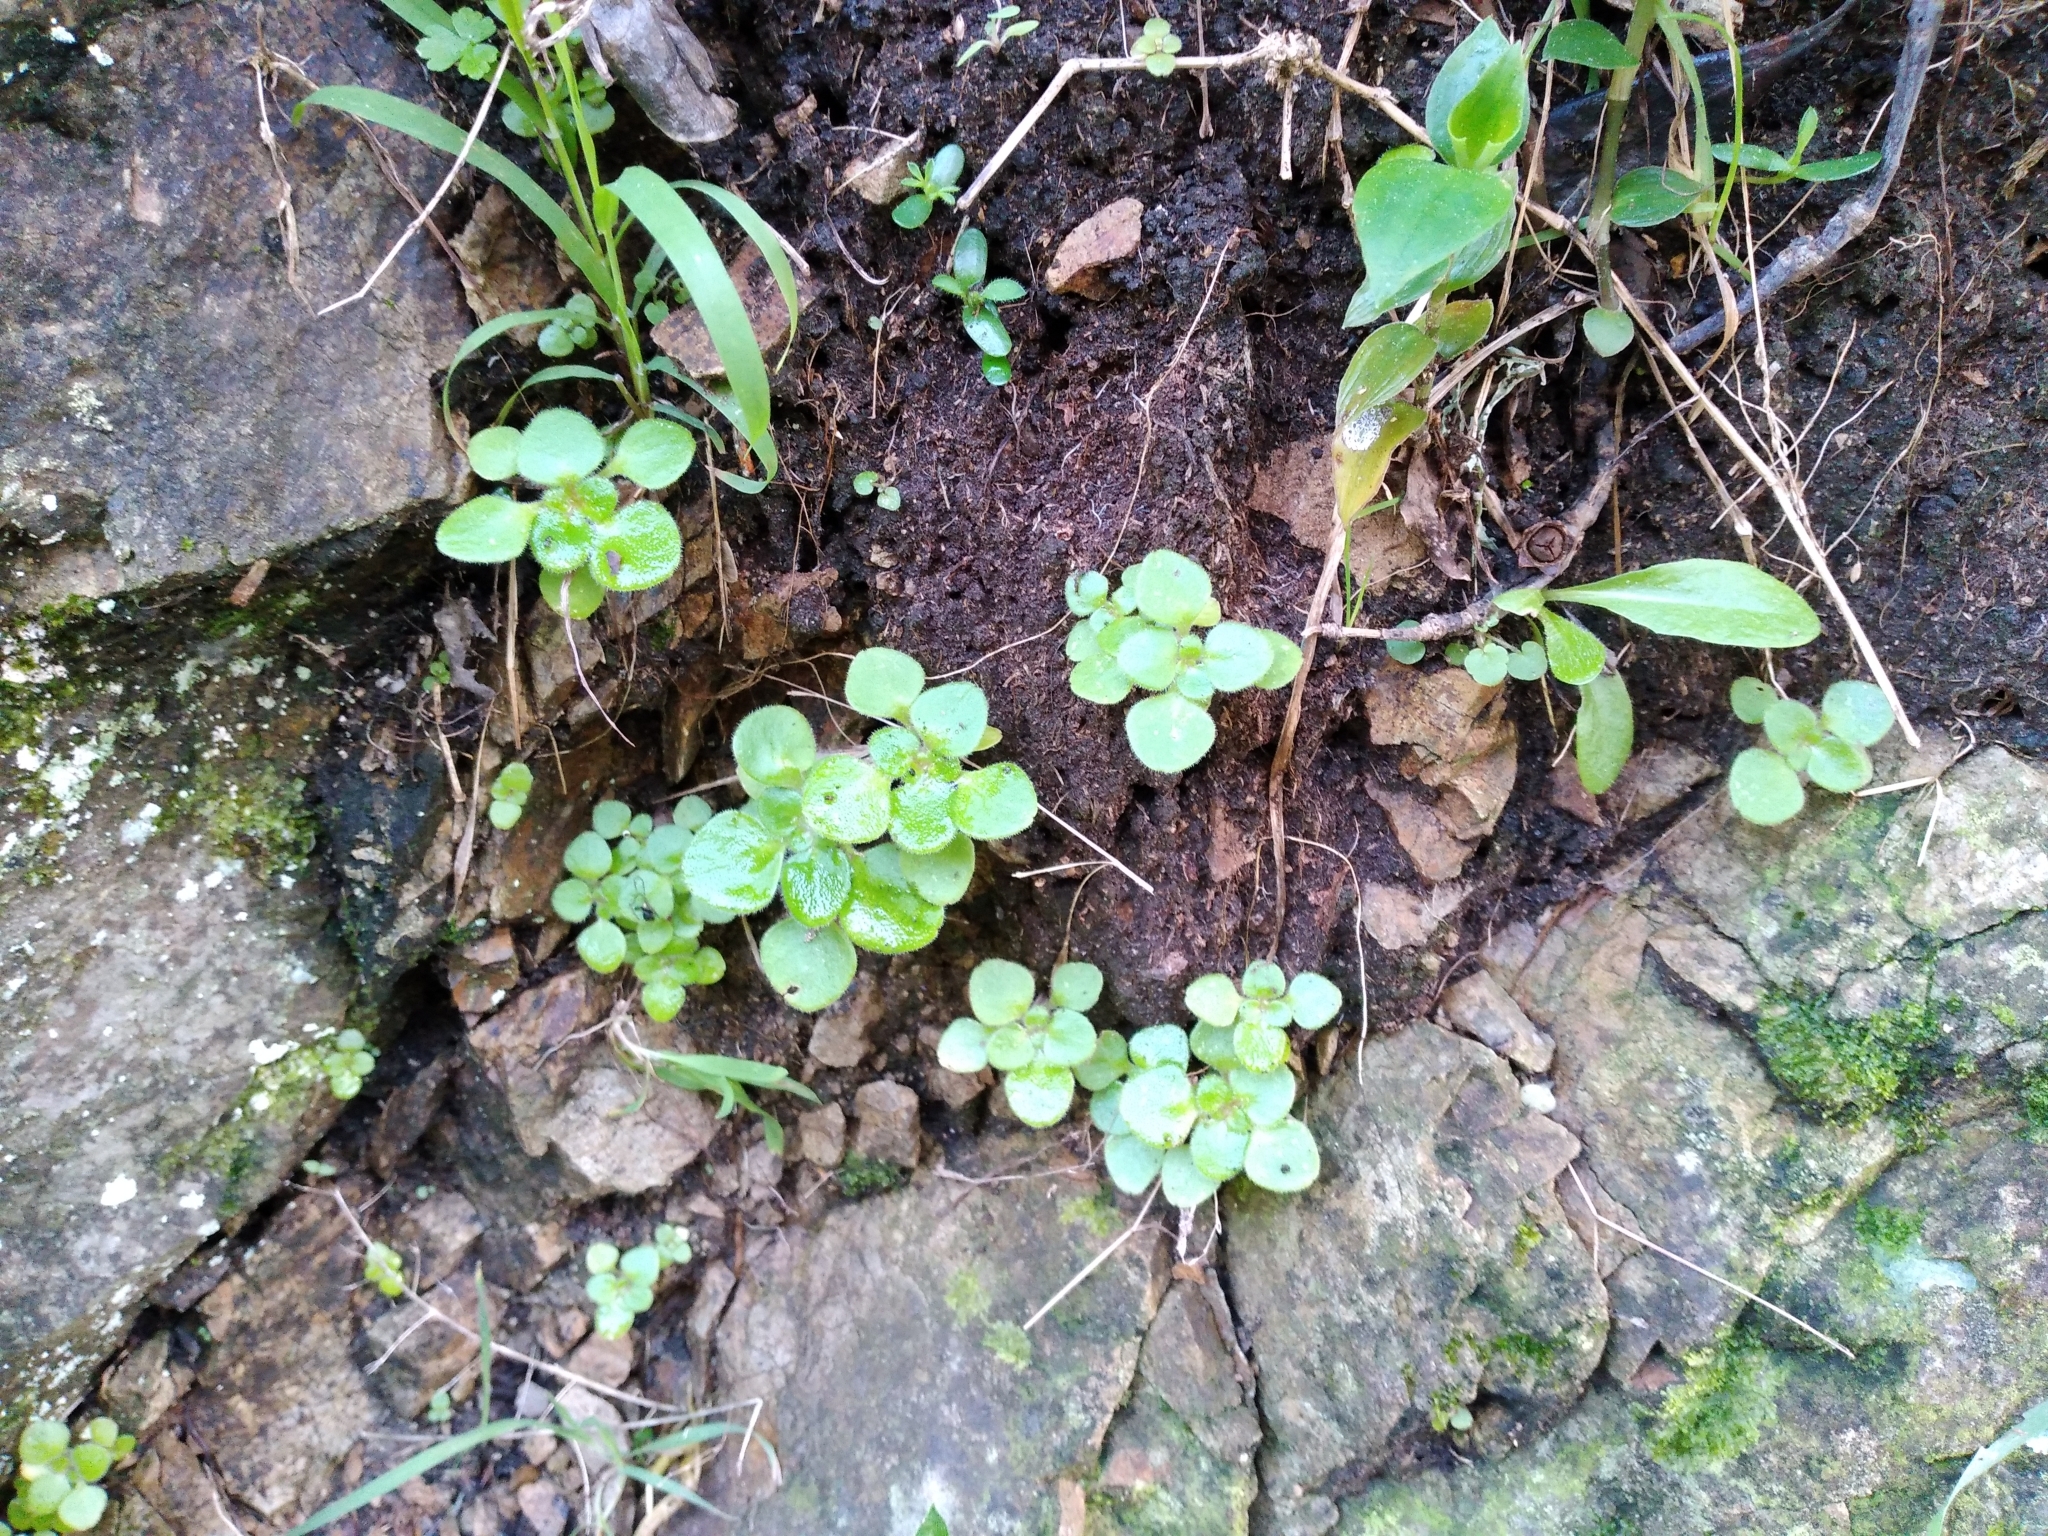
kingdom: Plantae
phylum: Tracheophyta
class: Magnoliopsida
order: Saxifragales
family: Crassulaceae
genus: Aichryson
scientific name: Aichryson laxum
